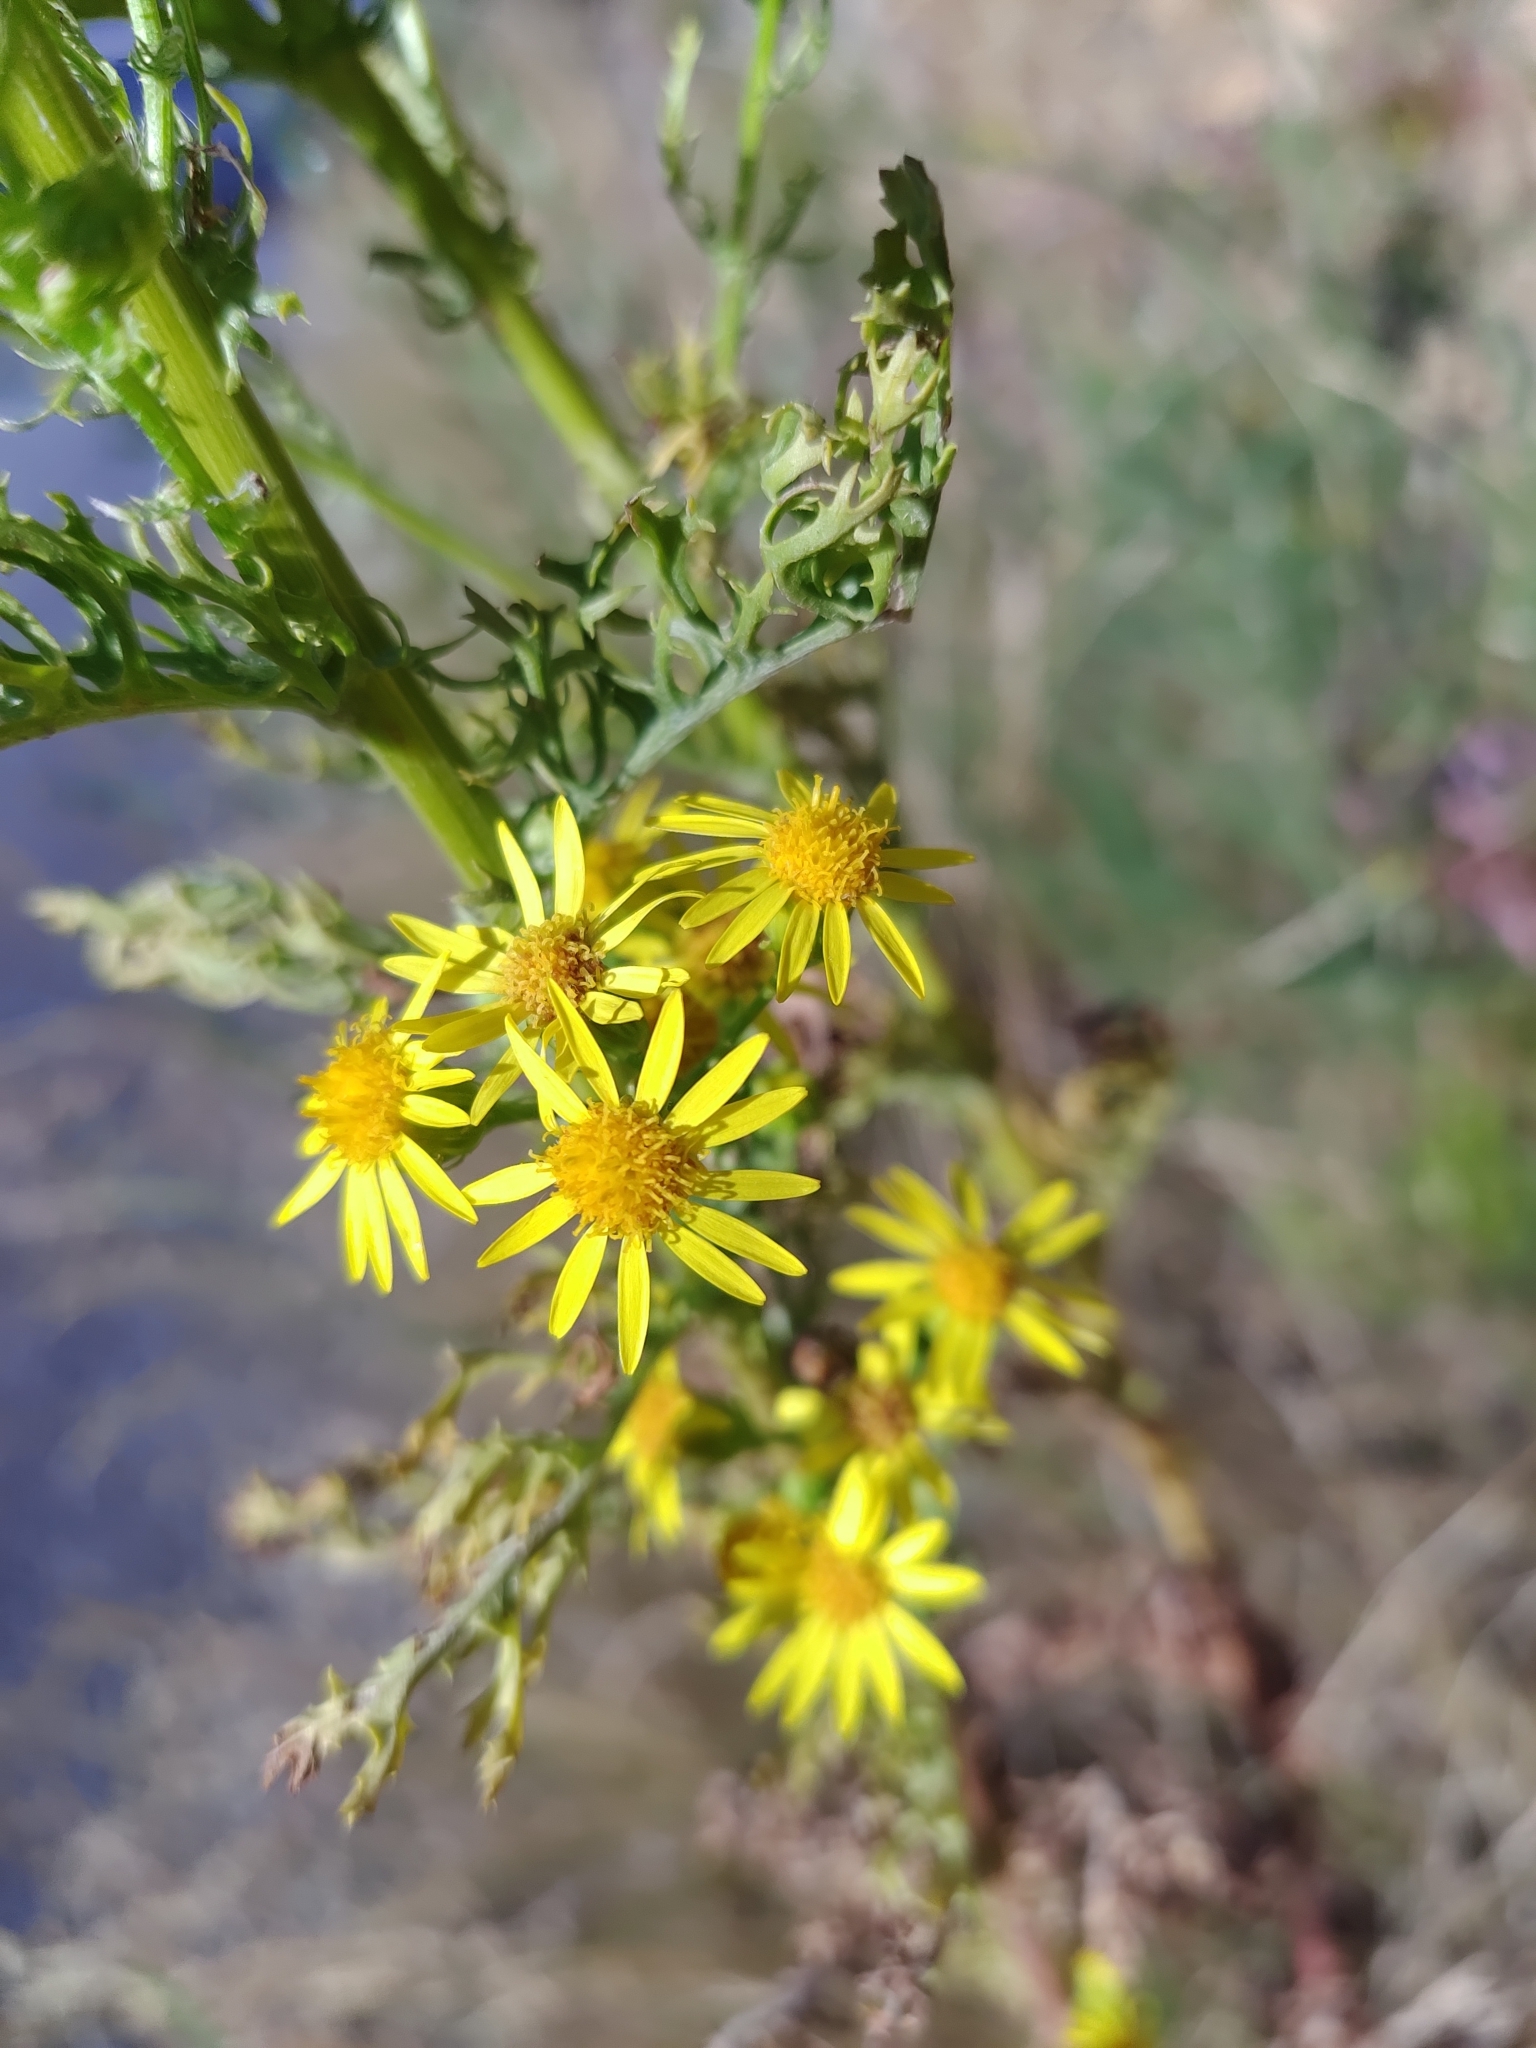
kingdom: Plantae
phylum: Tracheophyta
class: Magnoliopsida
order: Asterales
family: Asteraceae
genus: Jacobaea
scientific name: Jacobaea vulgaris
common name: Stinking willie
